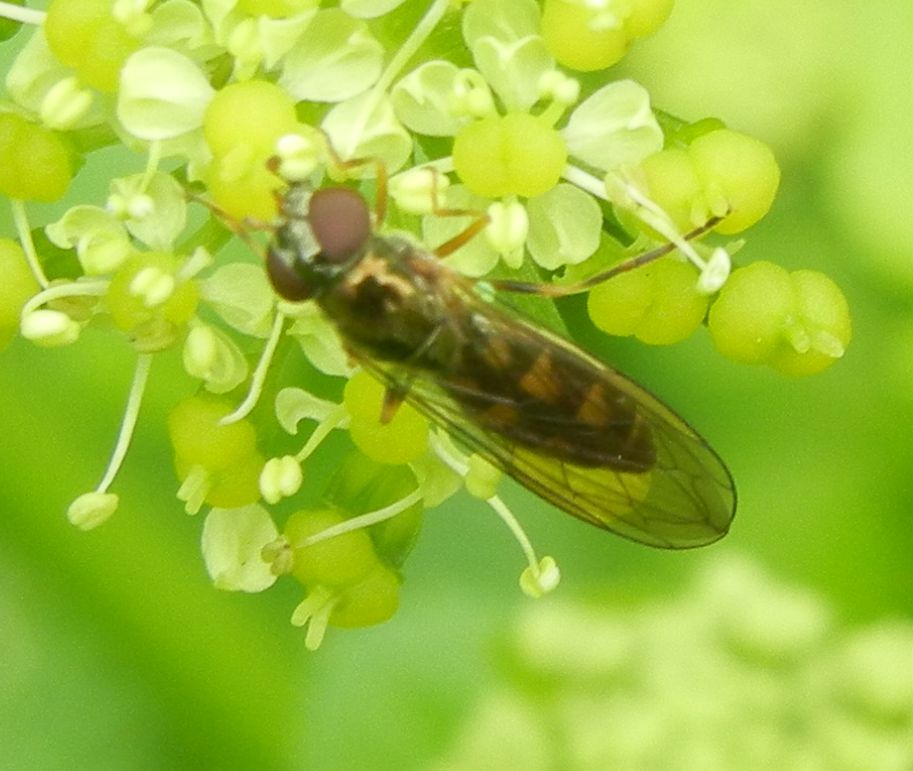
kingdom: Animalia
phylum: Arthropoda
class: Insecta
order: Diptera
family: Syrphidae
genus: Melanostoma
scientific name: Melanostoma scalare
